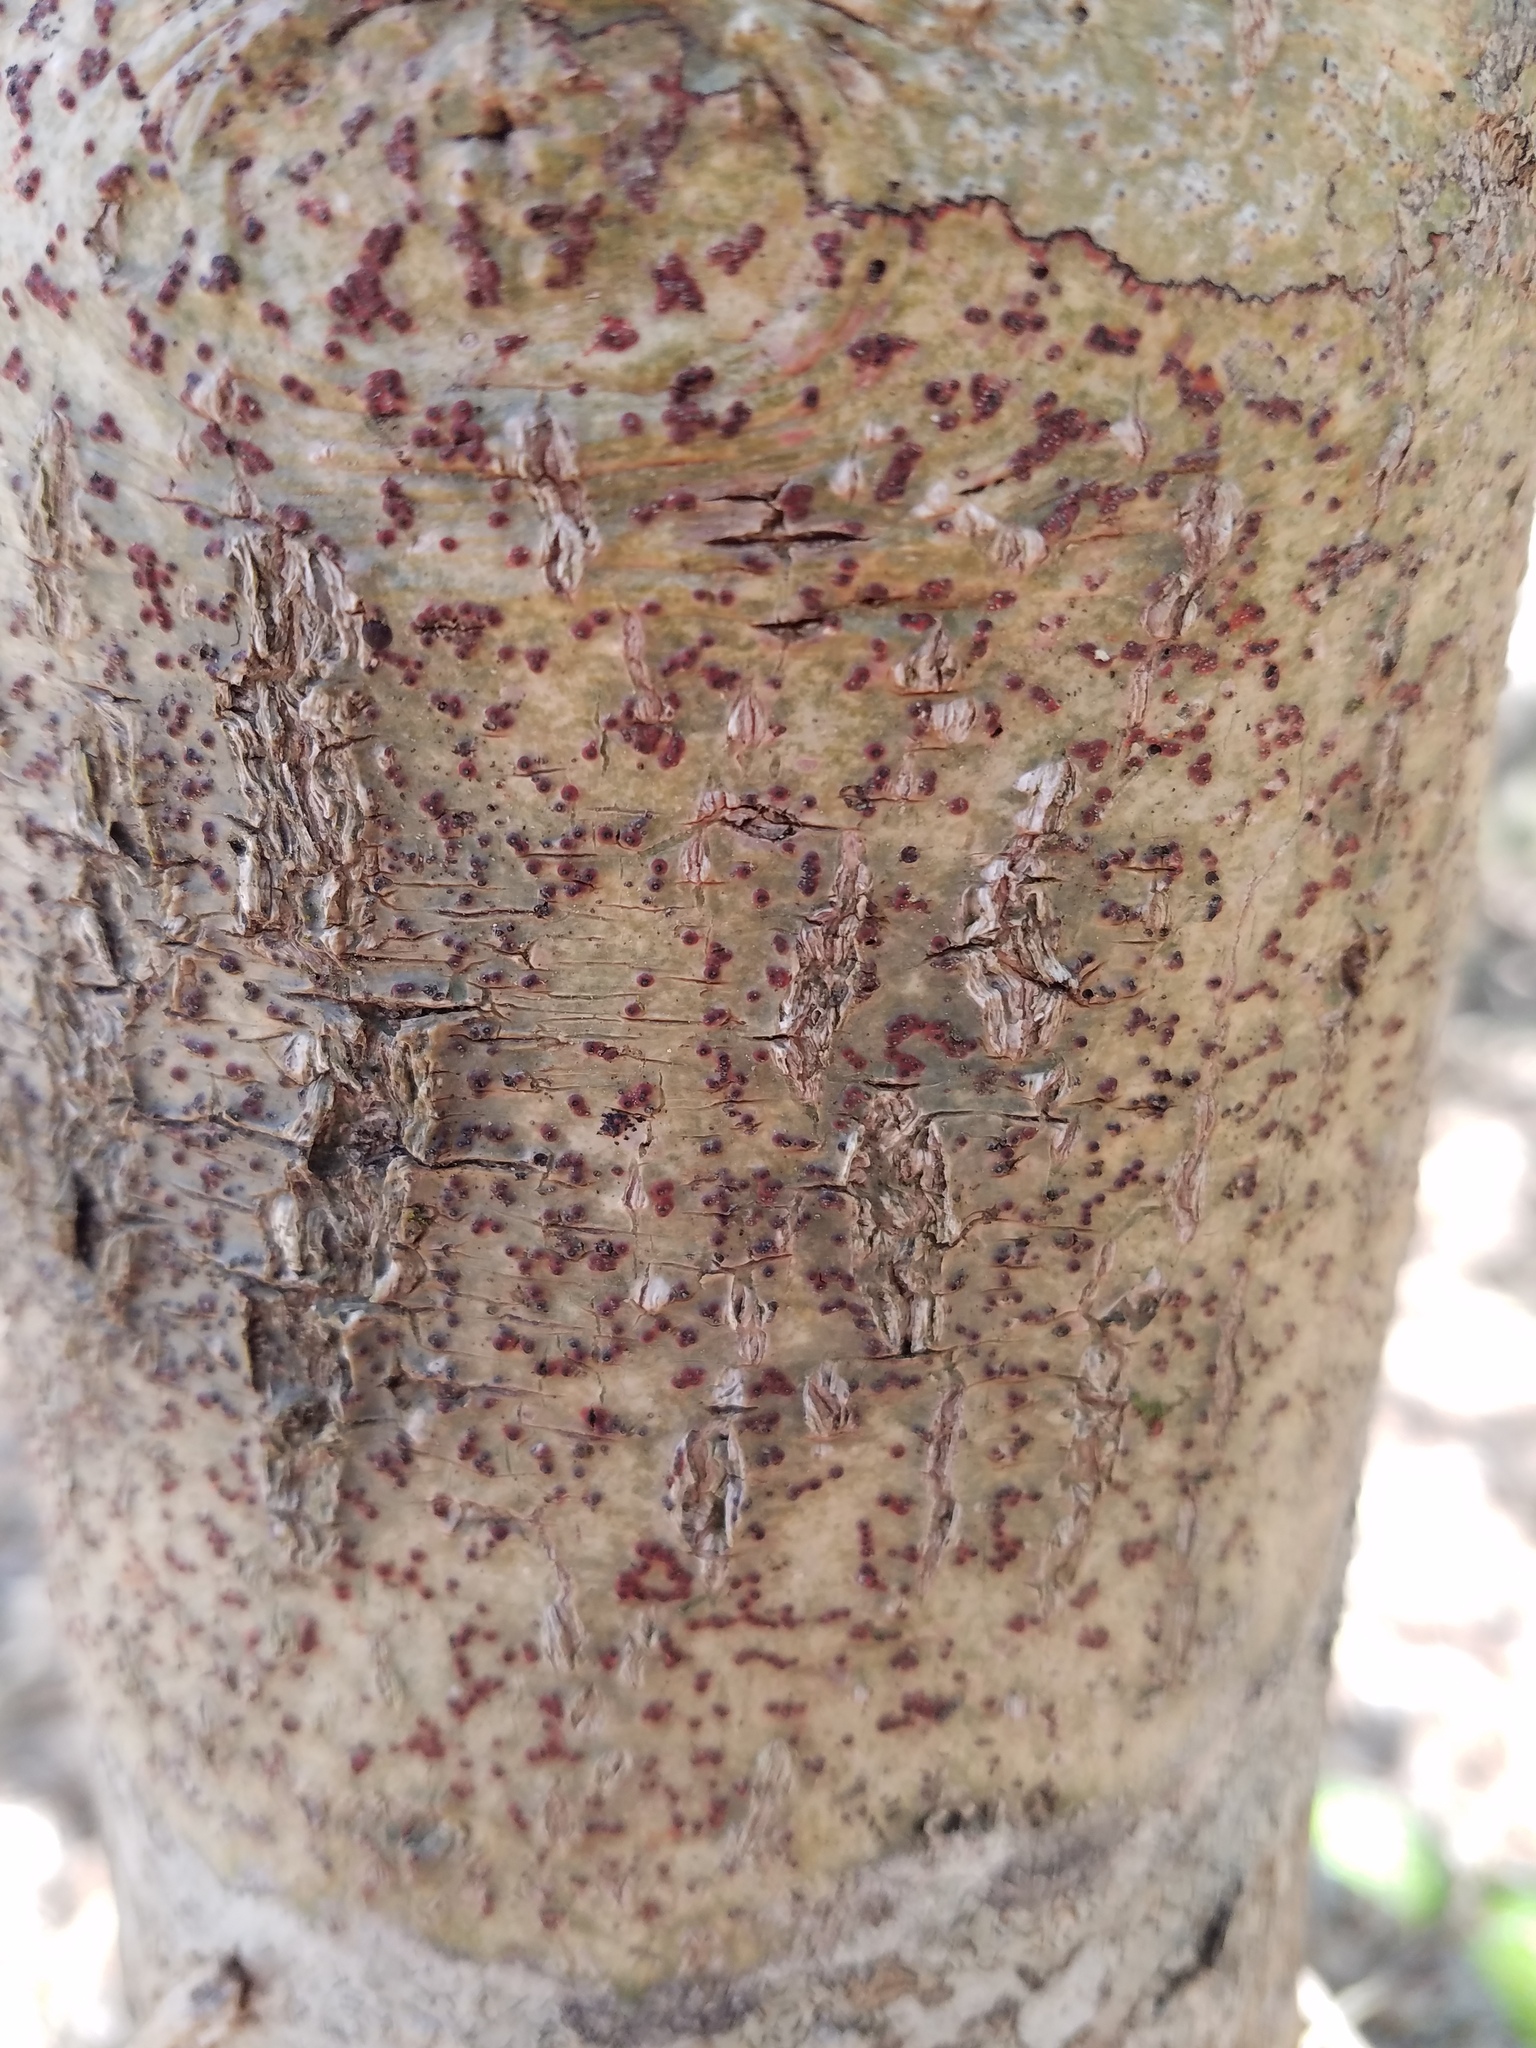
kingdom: Fungi
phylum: Ascomycota
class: Eurotiomycetes
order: Pyrenulales
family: Pyrenulaceae
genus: Pyrenula
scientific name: Pyrenula cruenta
